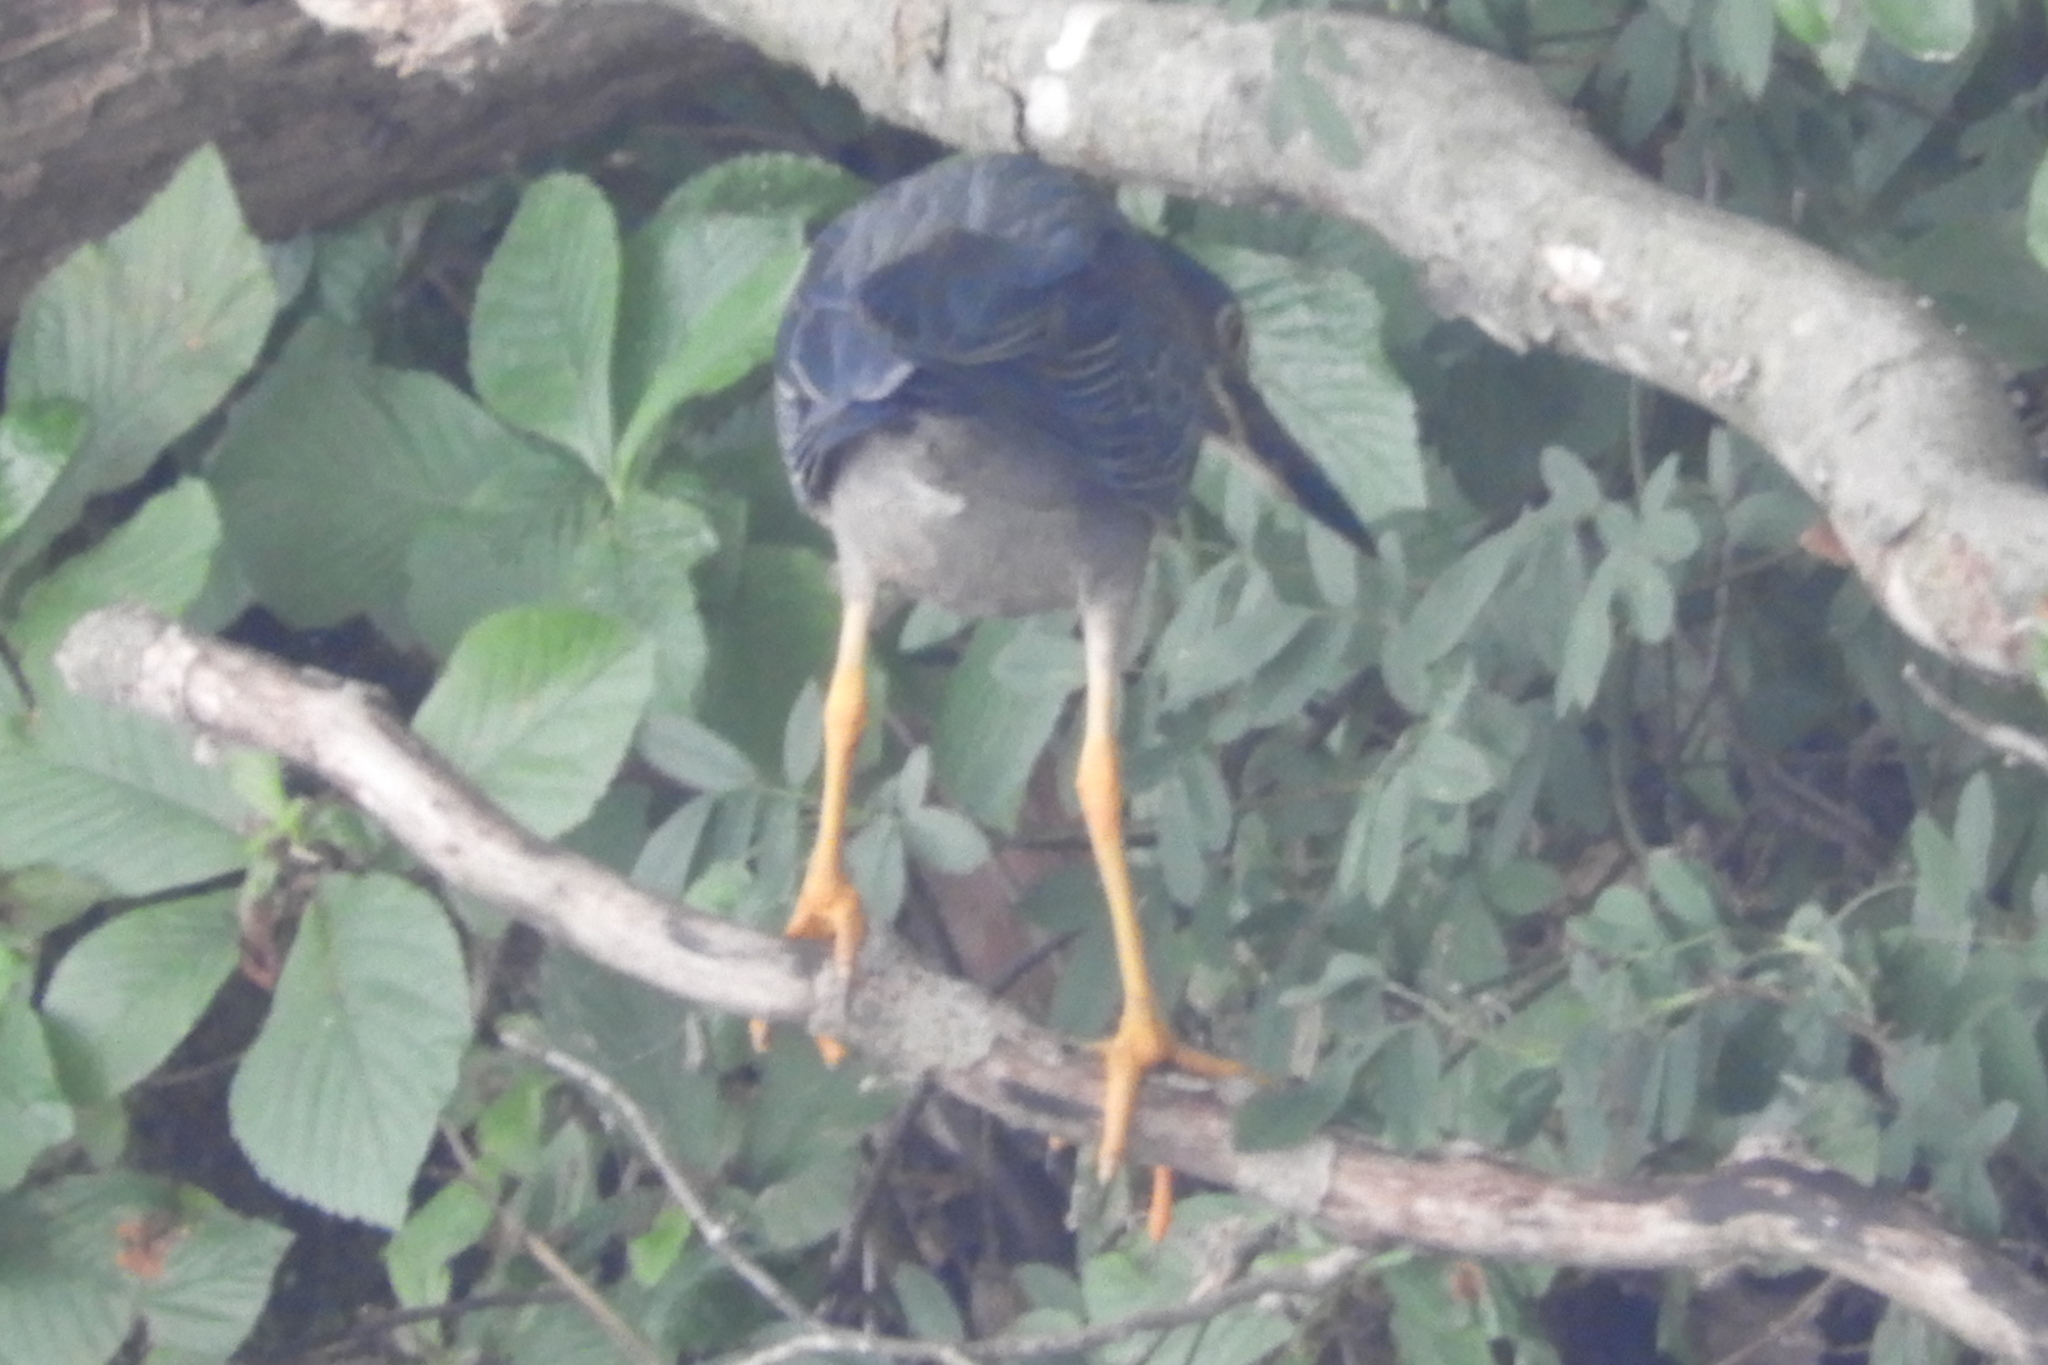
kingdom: Animalia
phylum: Chordata
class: Aves
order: Pelecaniformes
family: Ardeidae
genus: Butorides
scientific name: Butorides virescens
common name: Green heron
